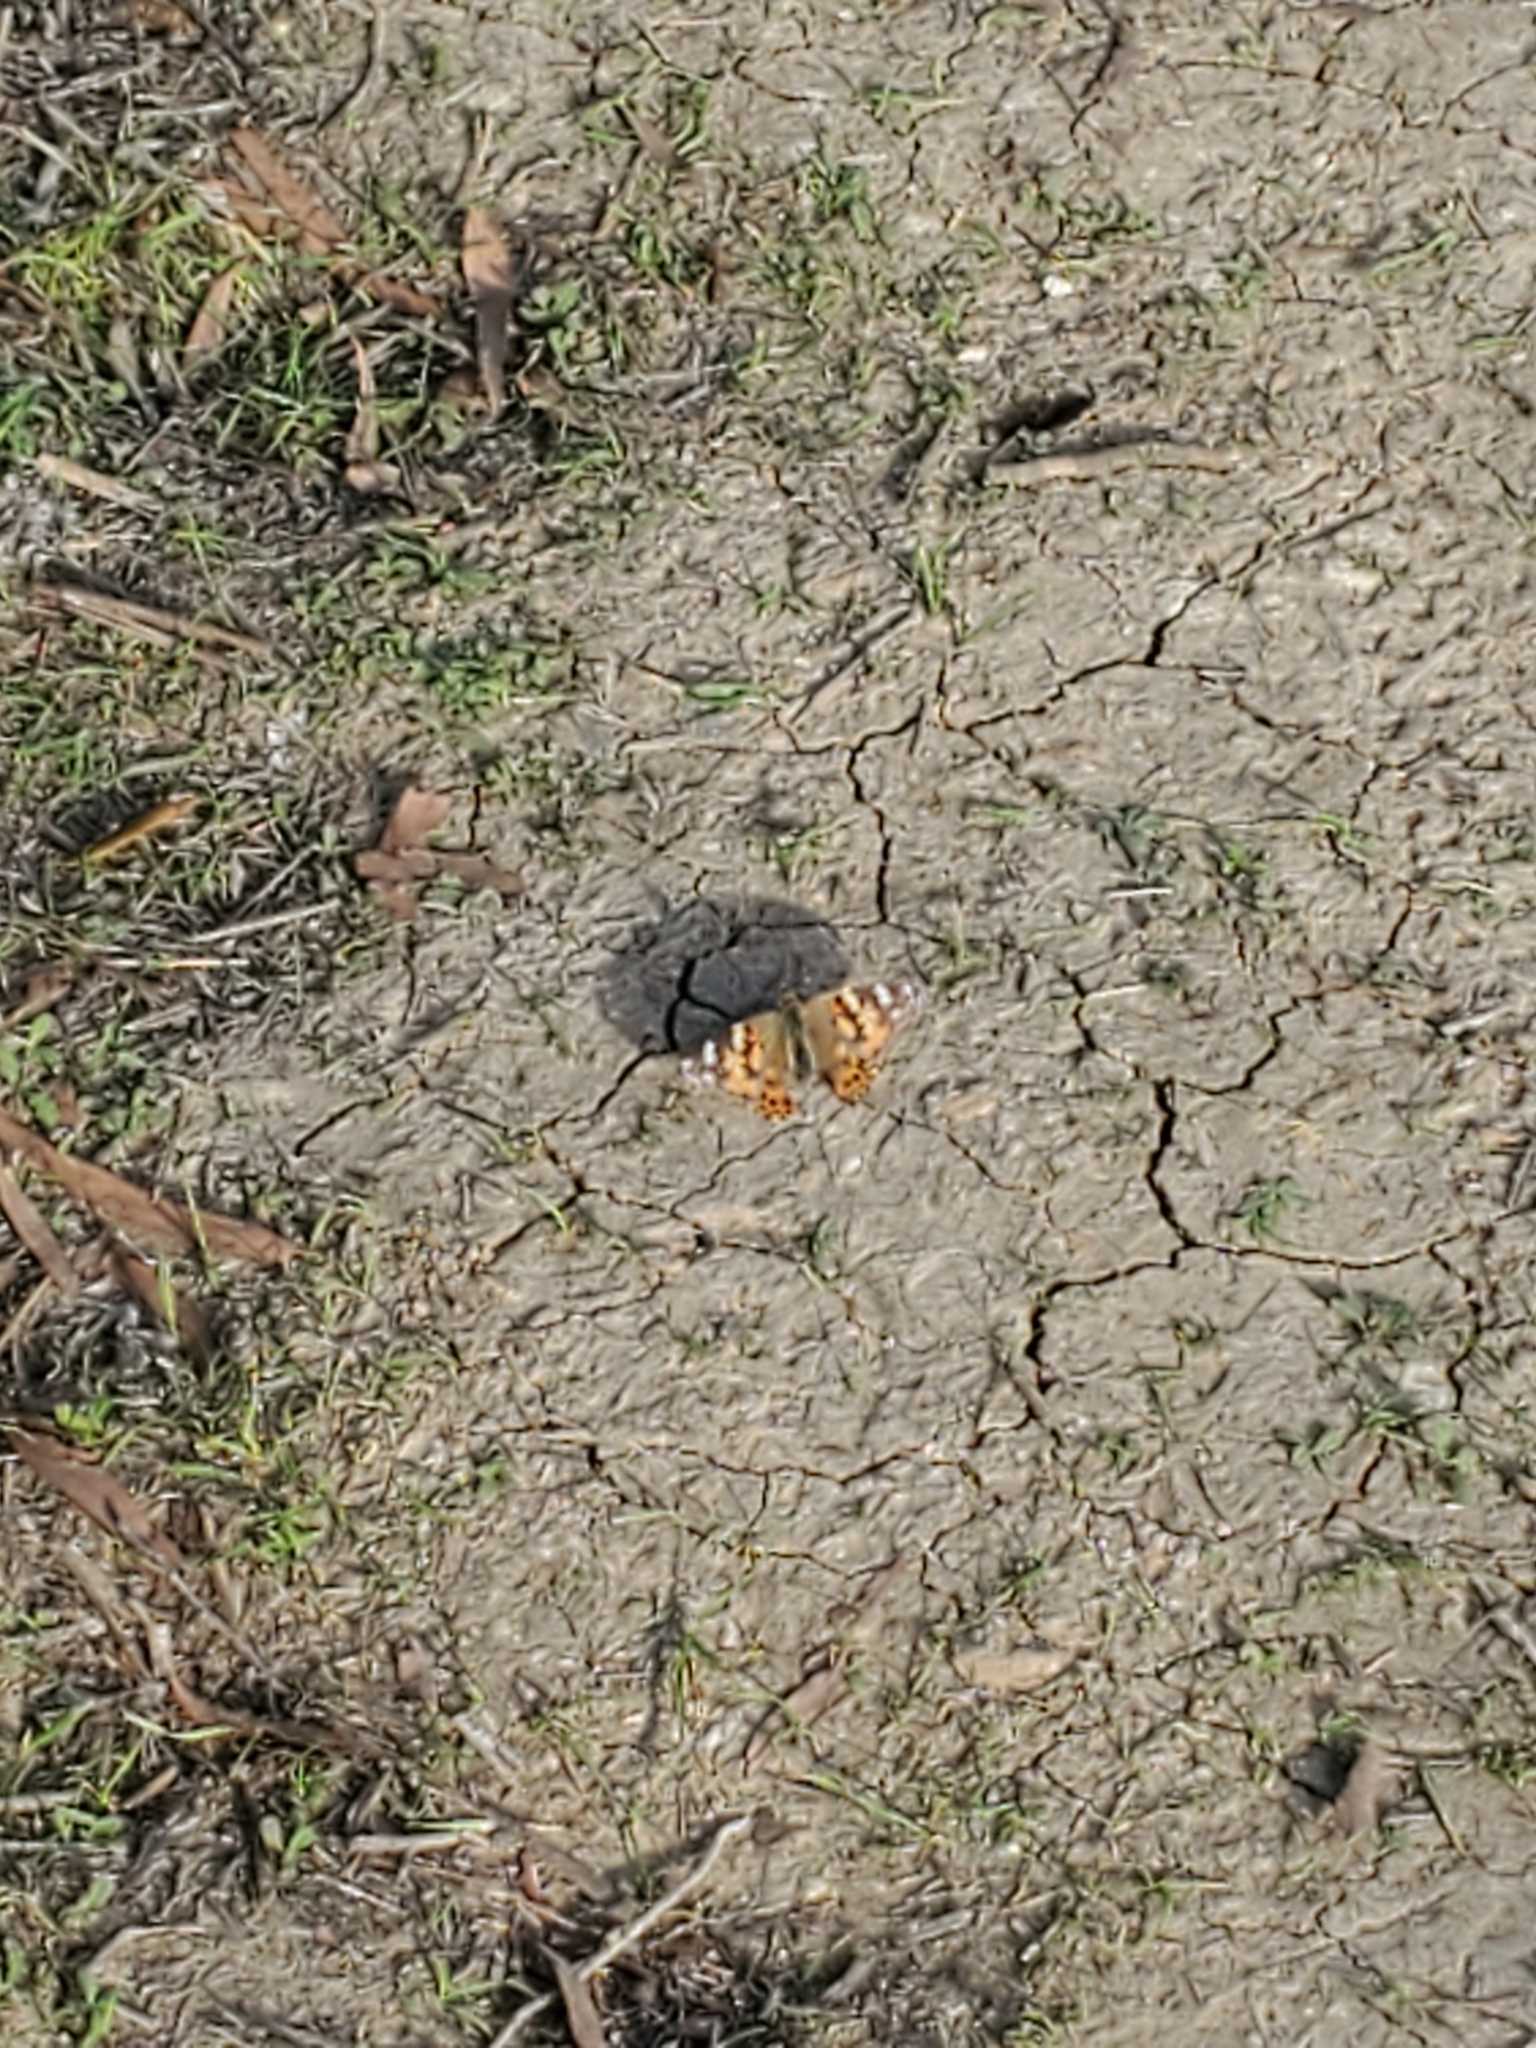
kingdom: Animalia
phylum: Arthropoda
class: Insecta
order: Lepidoptera
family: Nymphalidae
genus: Vanessa
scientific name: Vanessa cardui
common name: Painted lady
